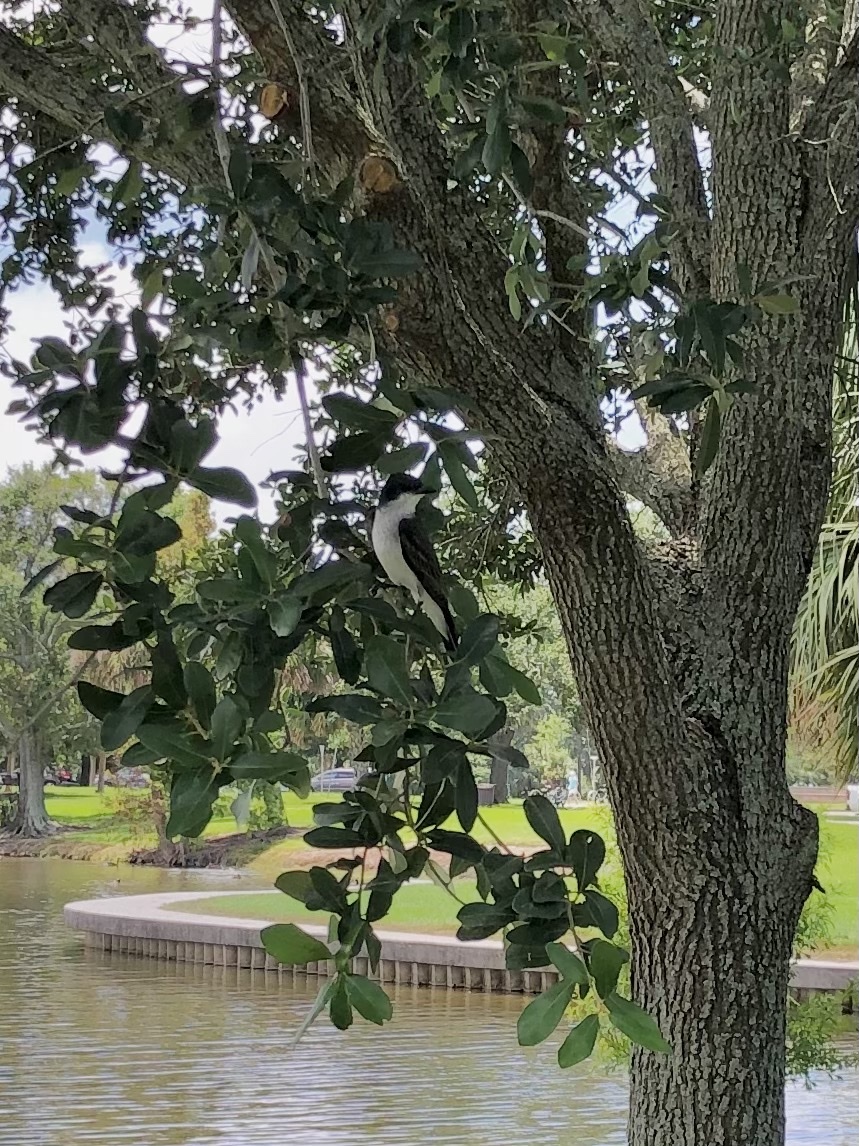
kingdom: Animalia
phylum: Chordata
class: Aves
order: Passeriformes
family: Tyrannidae
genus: Tyrannus
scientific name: Tyrannus tyrannus
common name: Eastern kingbird
